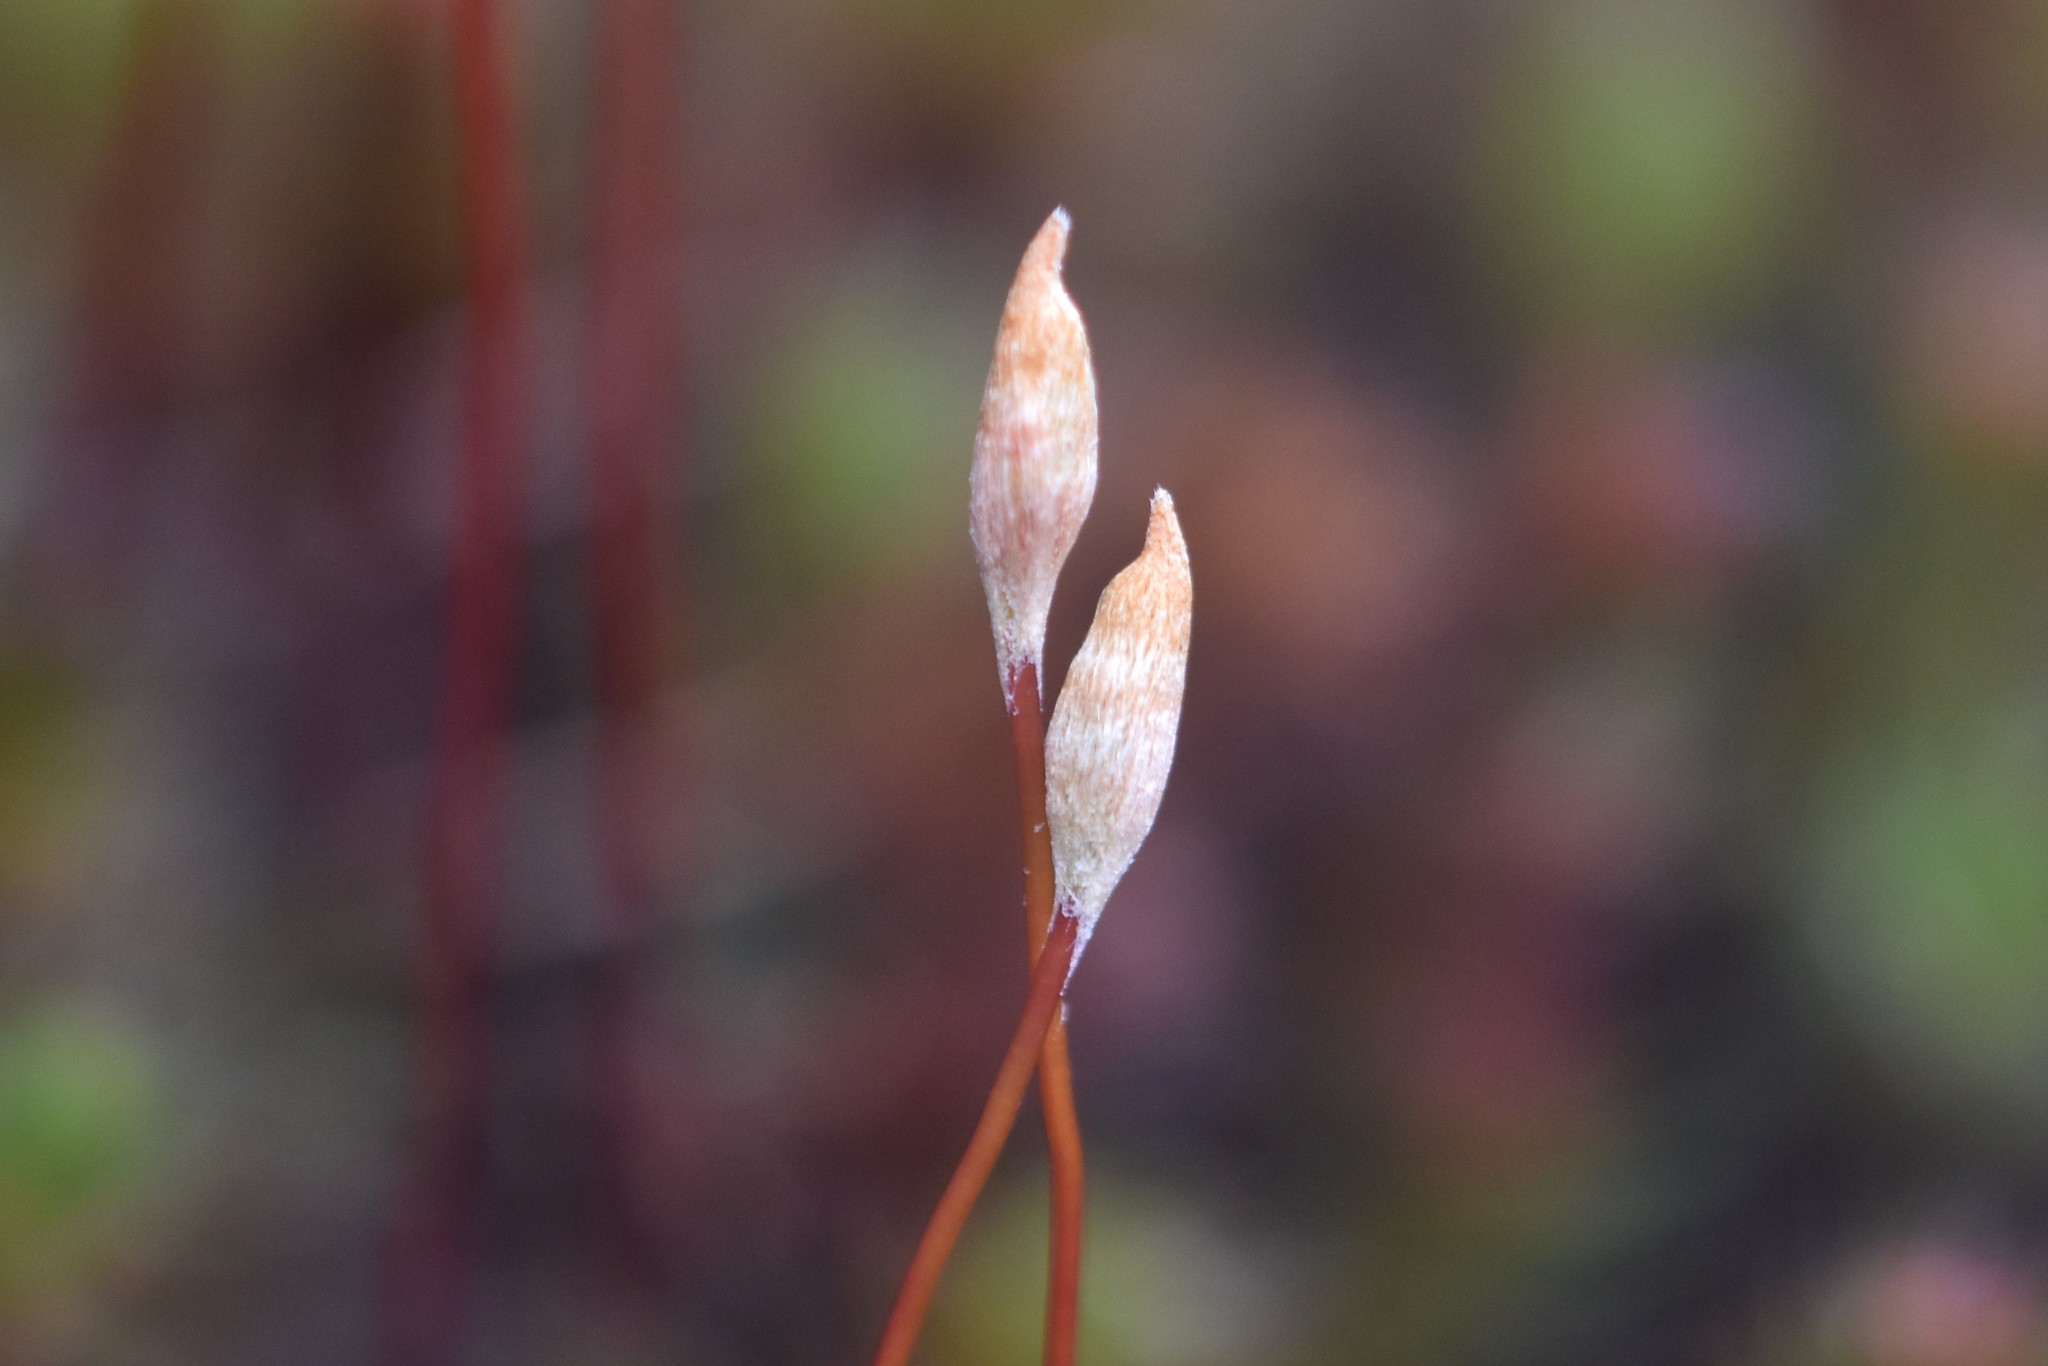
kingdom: Plantae
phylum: Bryophyta
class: Polytrichopsida
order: Polytrichales
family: Polytrichaceae
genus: Polytrichum
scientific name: Polytrichum piliferum
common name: Bristly haircap
